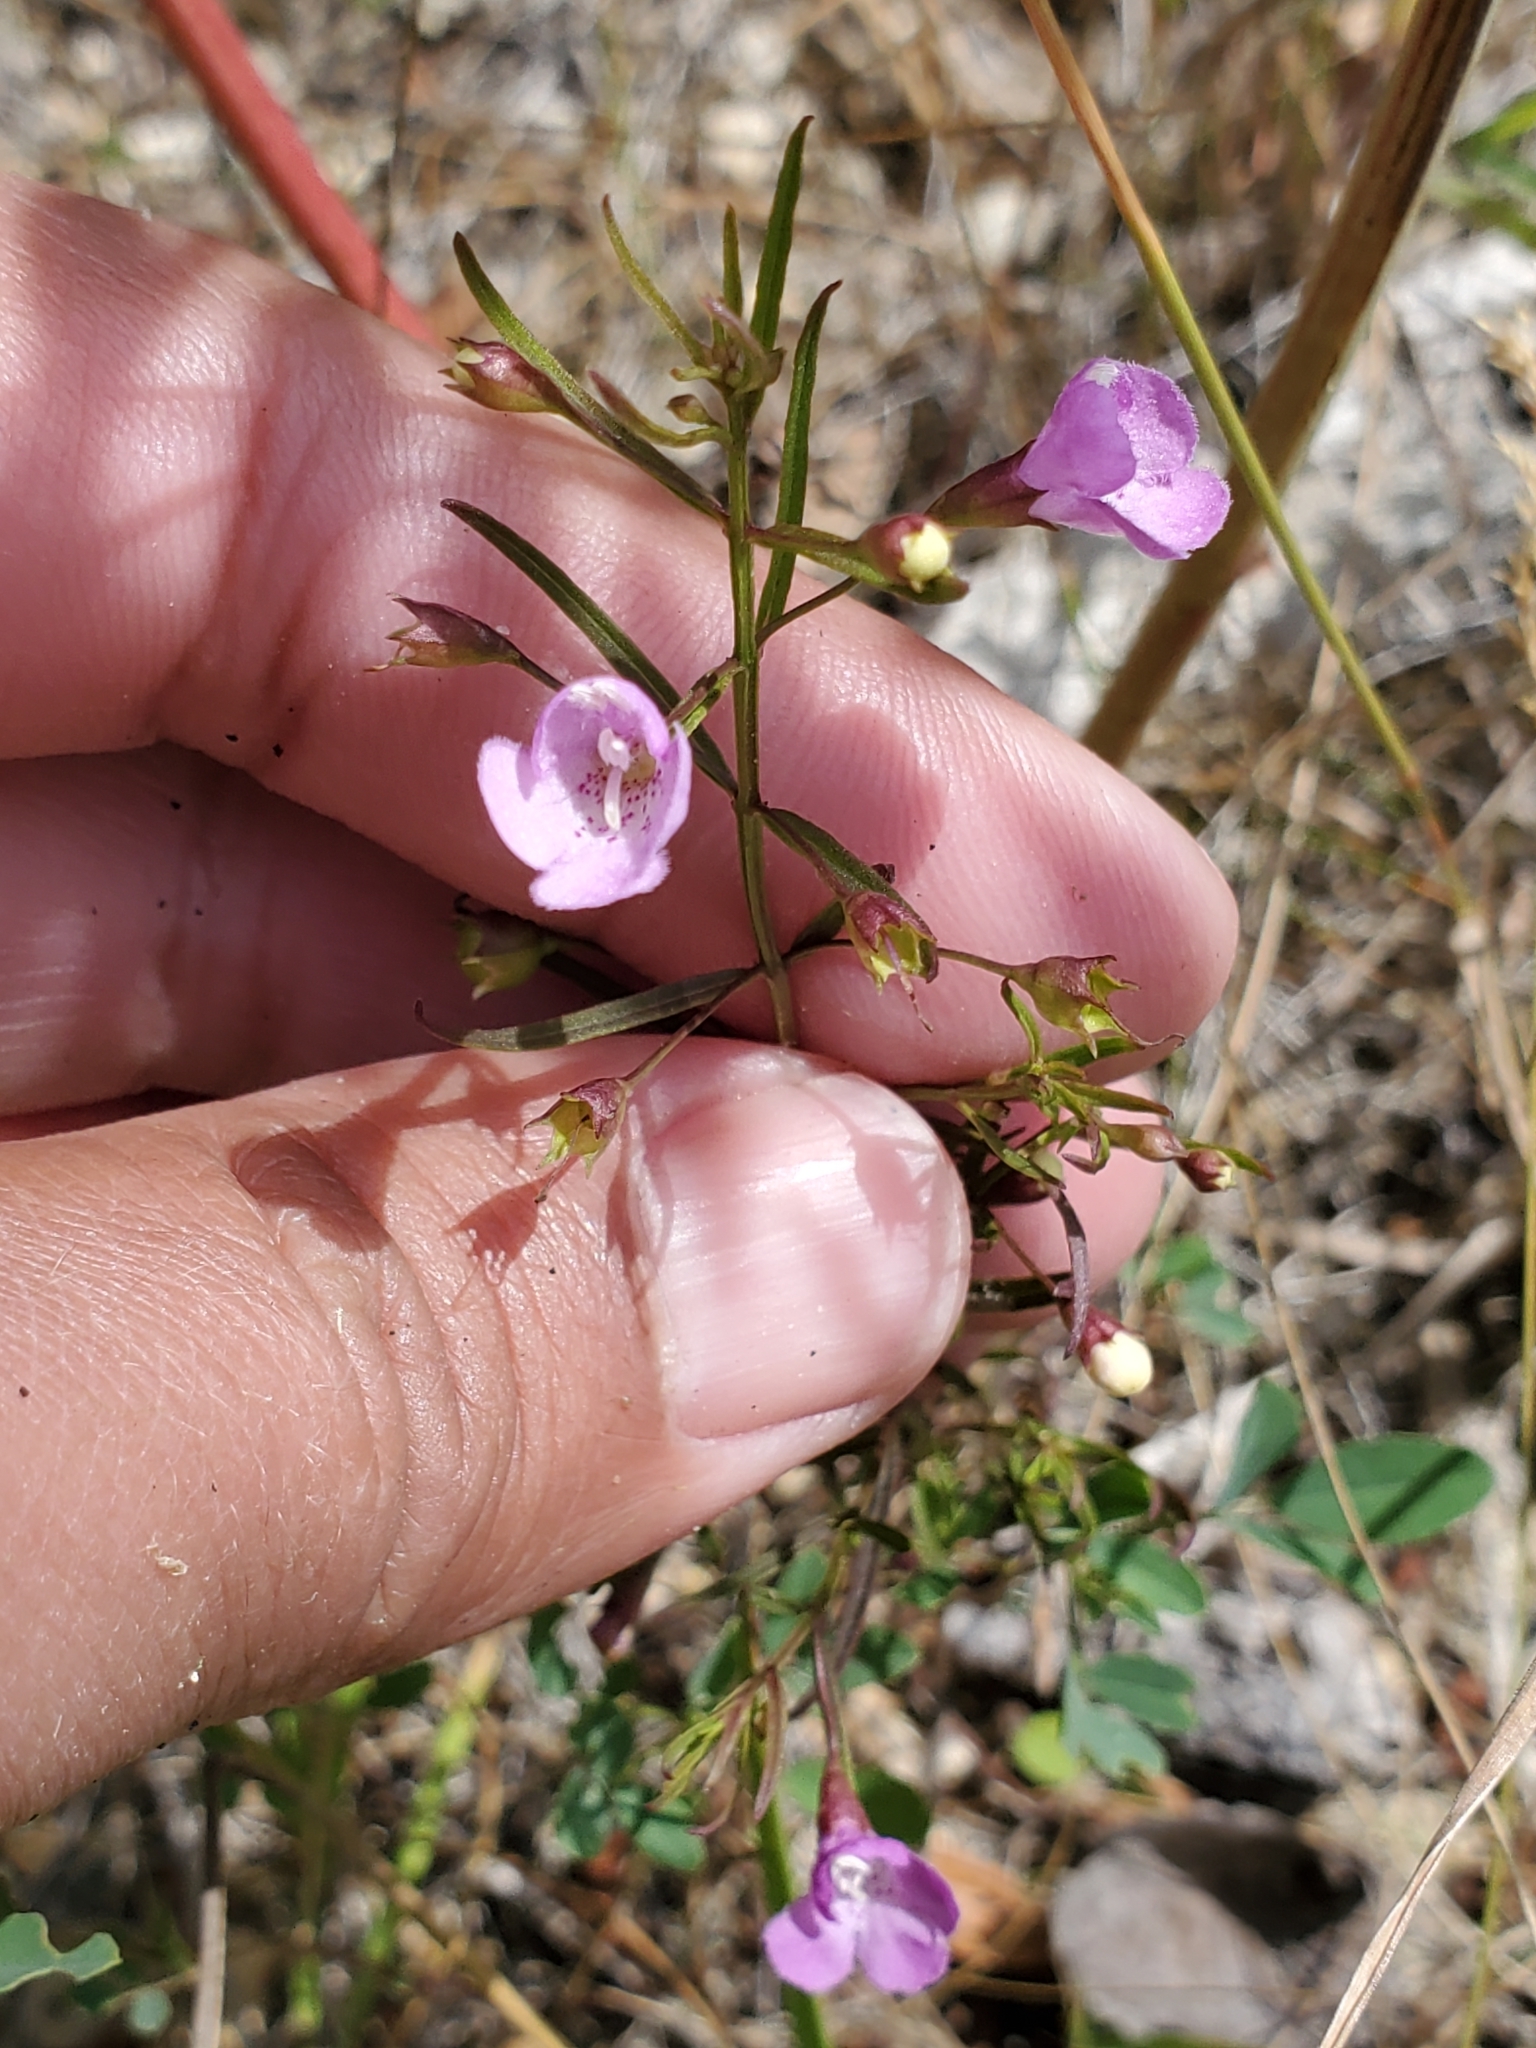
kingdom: Plantae
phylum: Tracheophyta
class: Magnoliopsida
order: Lamiales
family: Orobanchaceae
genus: Agalinis
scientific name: Agalinis tenuifolia
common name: Slender agalinis
